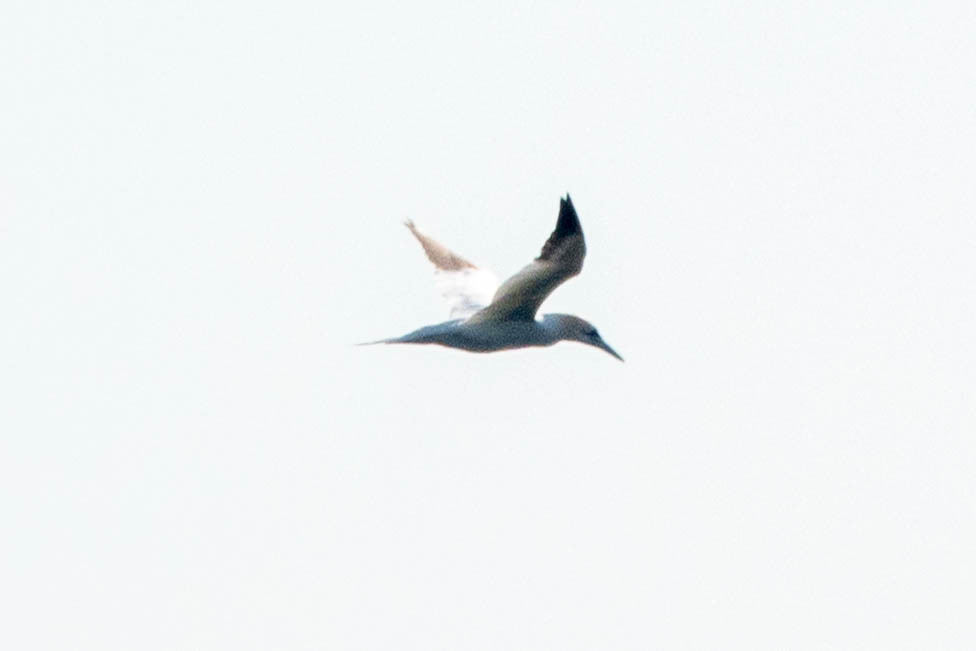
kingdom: Animalia
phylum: Chordata
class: Aves
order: Suliformes
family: Sulidae
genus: Morus
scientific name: Morus bassanus
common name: Northern gannet
